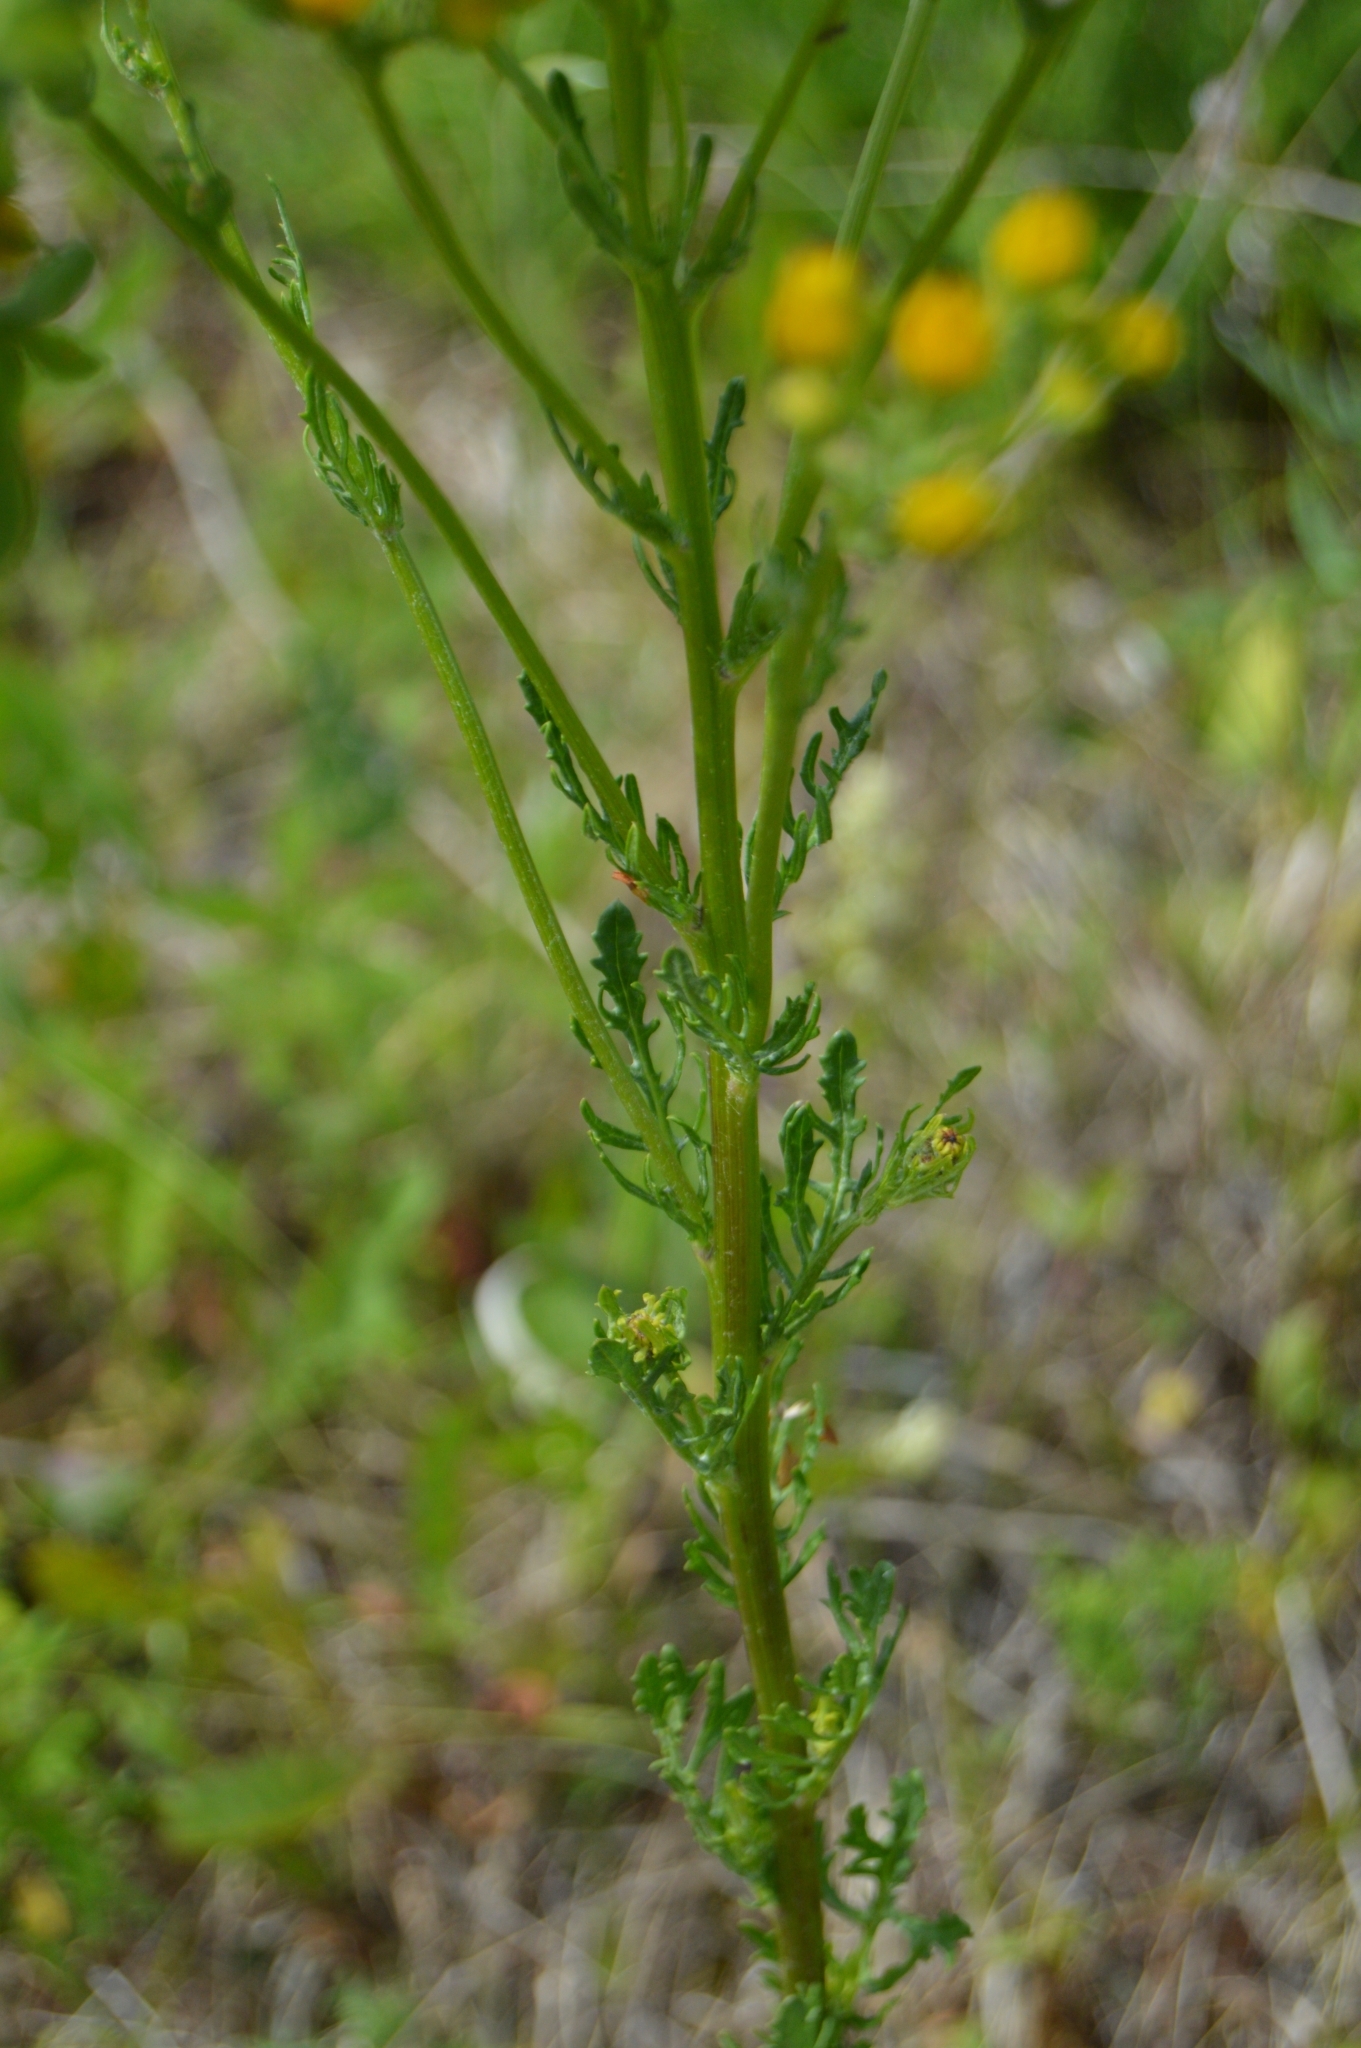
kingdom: Plantae
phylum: Tracheophyta
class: Magnoliopsida
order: Asterales
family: Asteraceae
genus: Jacobaea
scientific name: Jacobaea erucifolia
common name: Hoary ragwort
